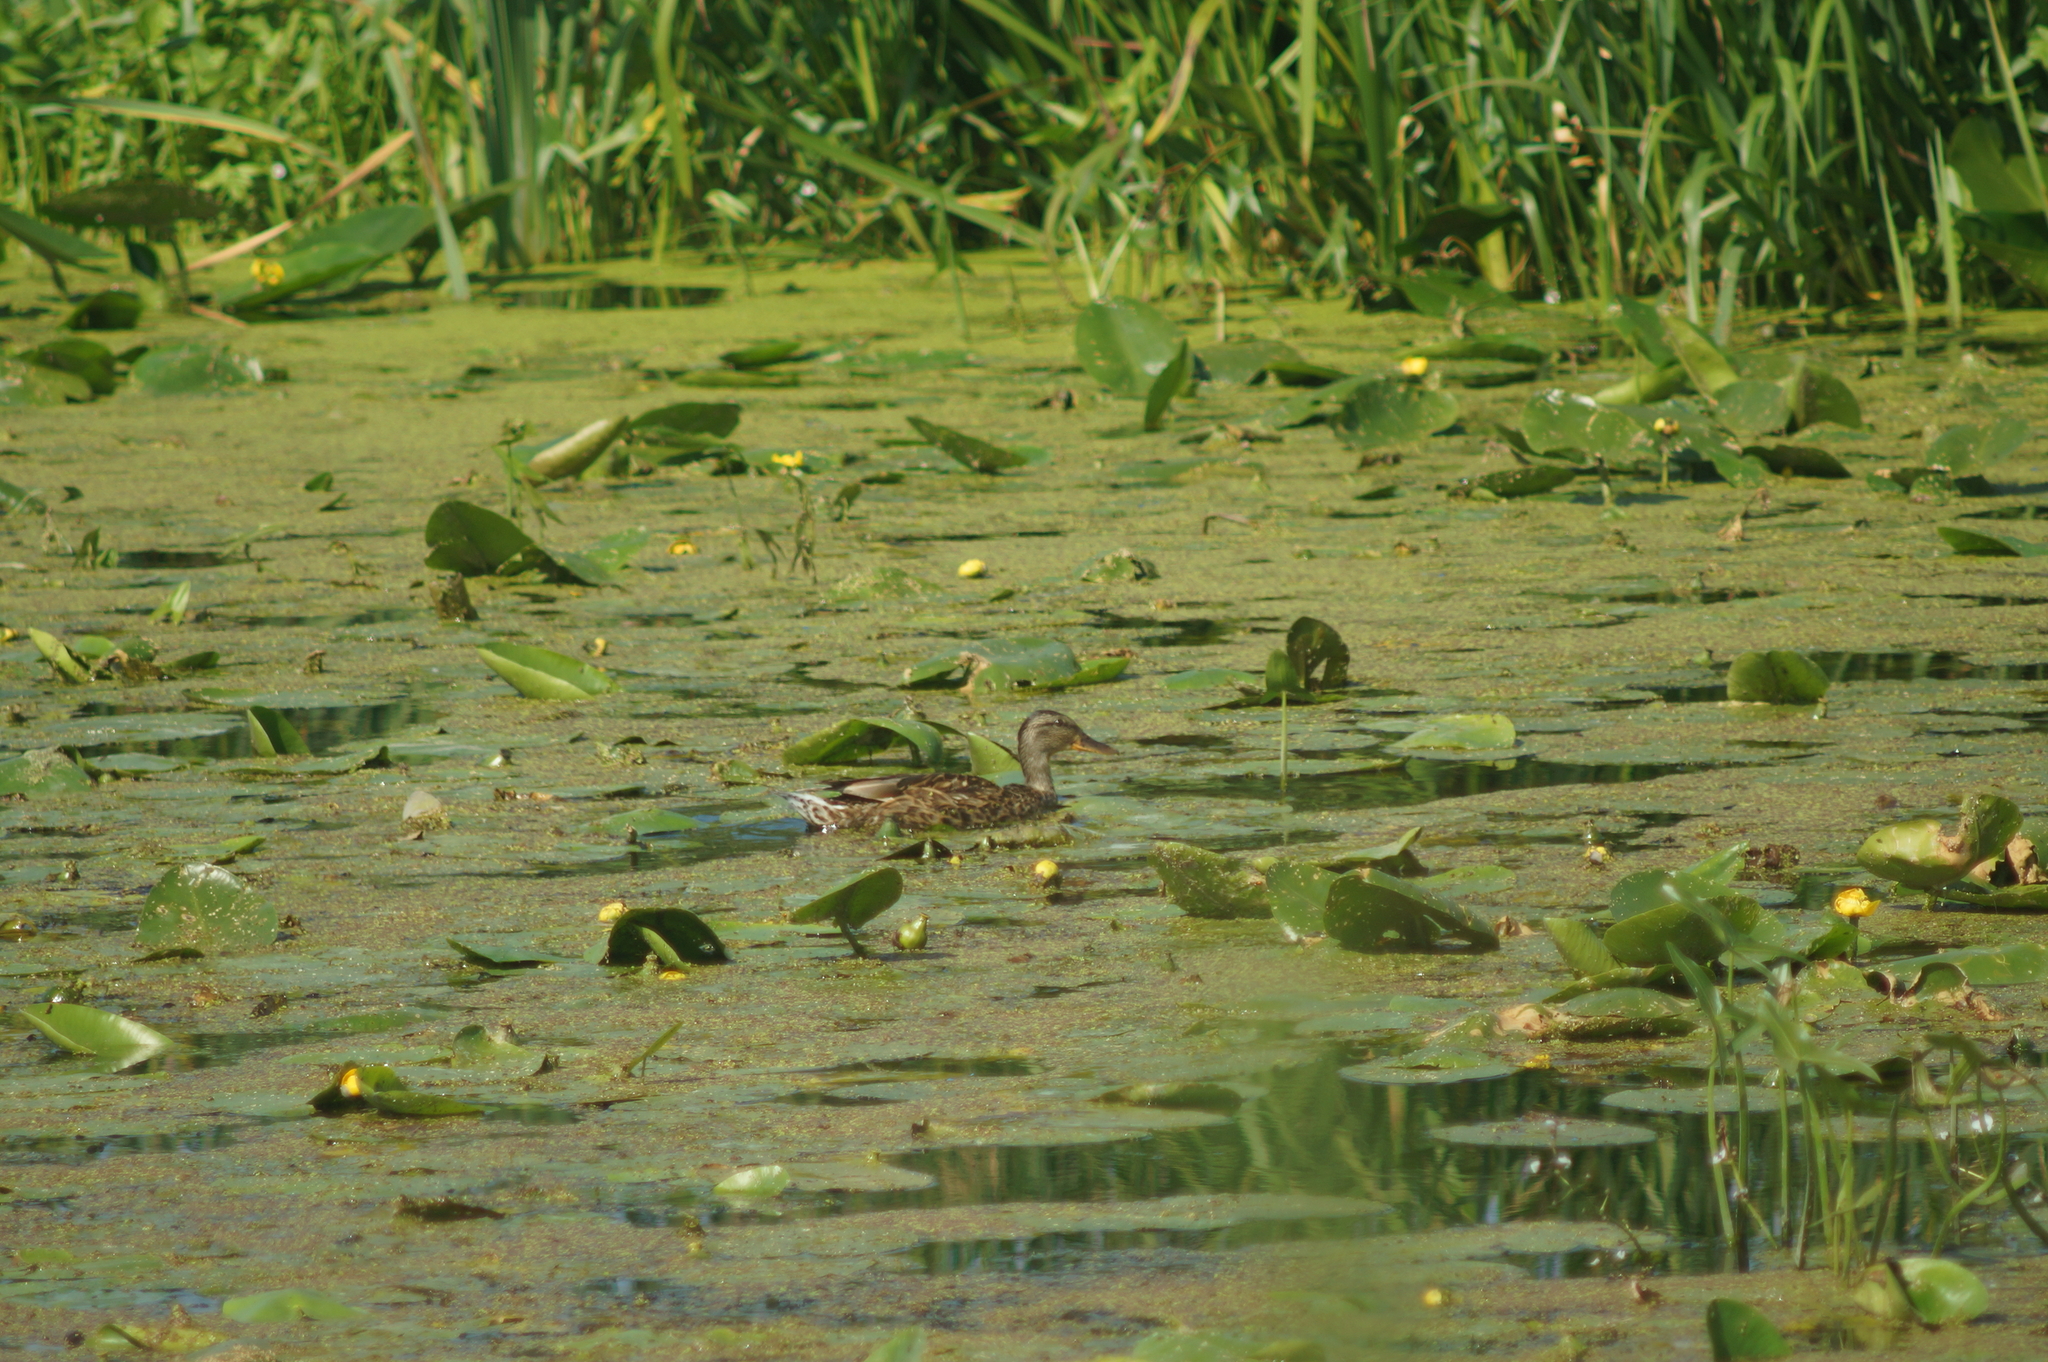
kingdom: Animalia
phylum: Chordata
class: Aves
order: Anseriformes
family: Anatidae
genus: Anas
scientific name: Anas platyrhynchos
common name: Mallard
